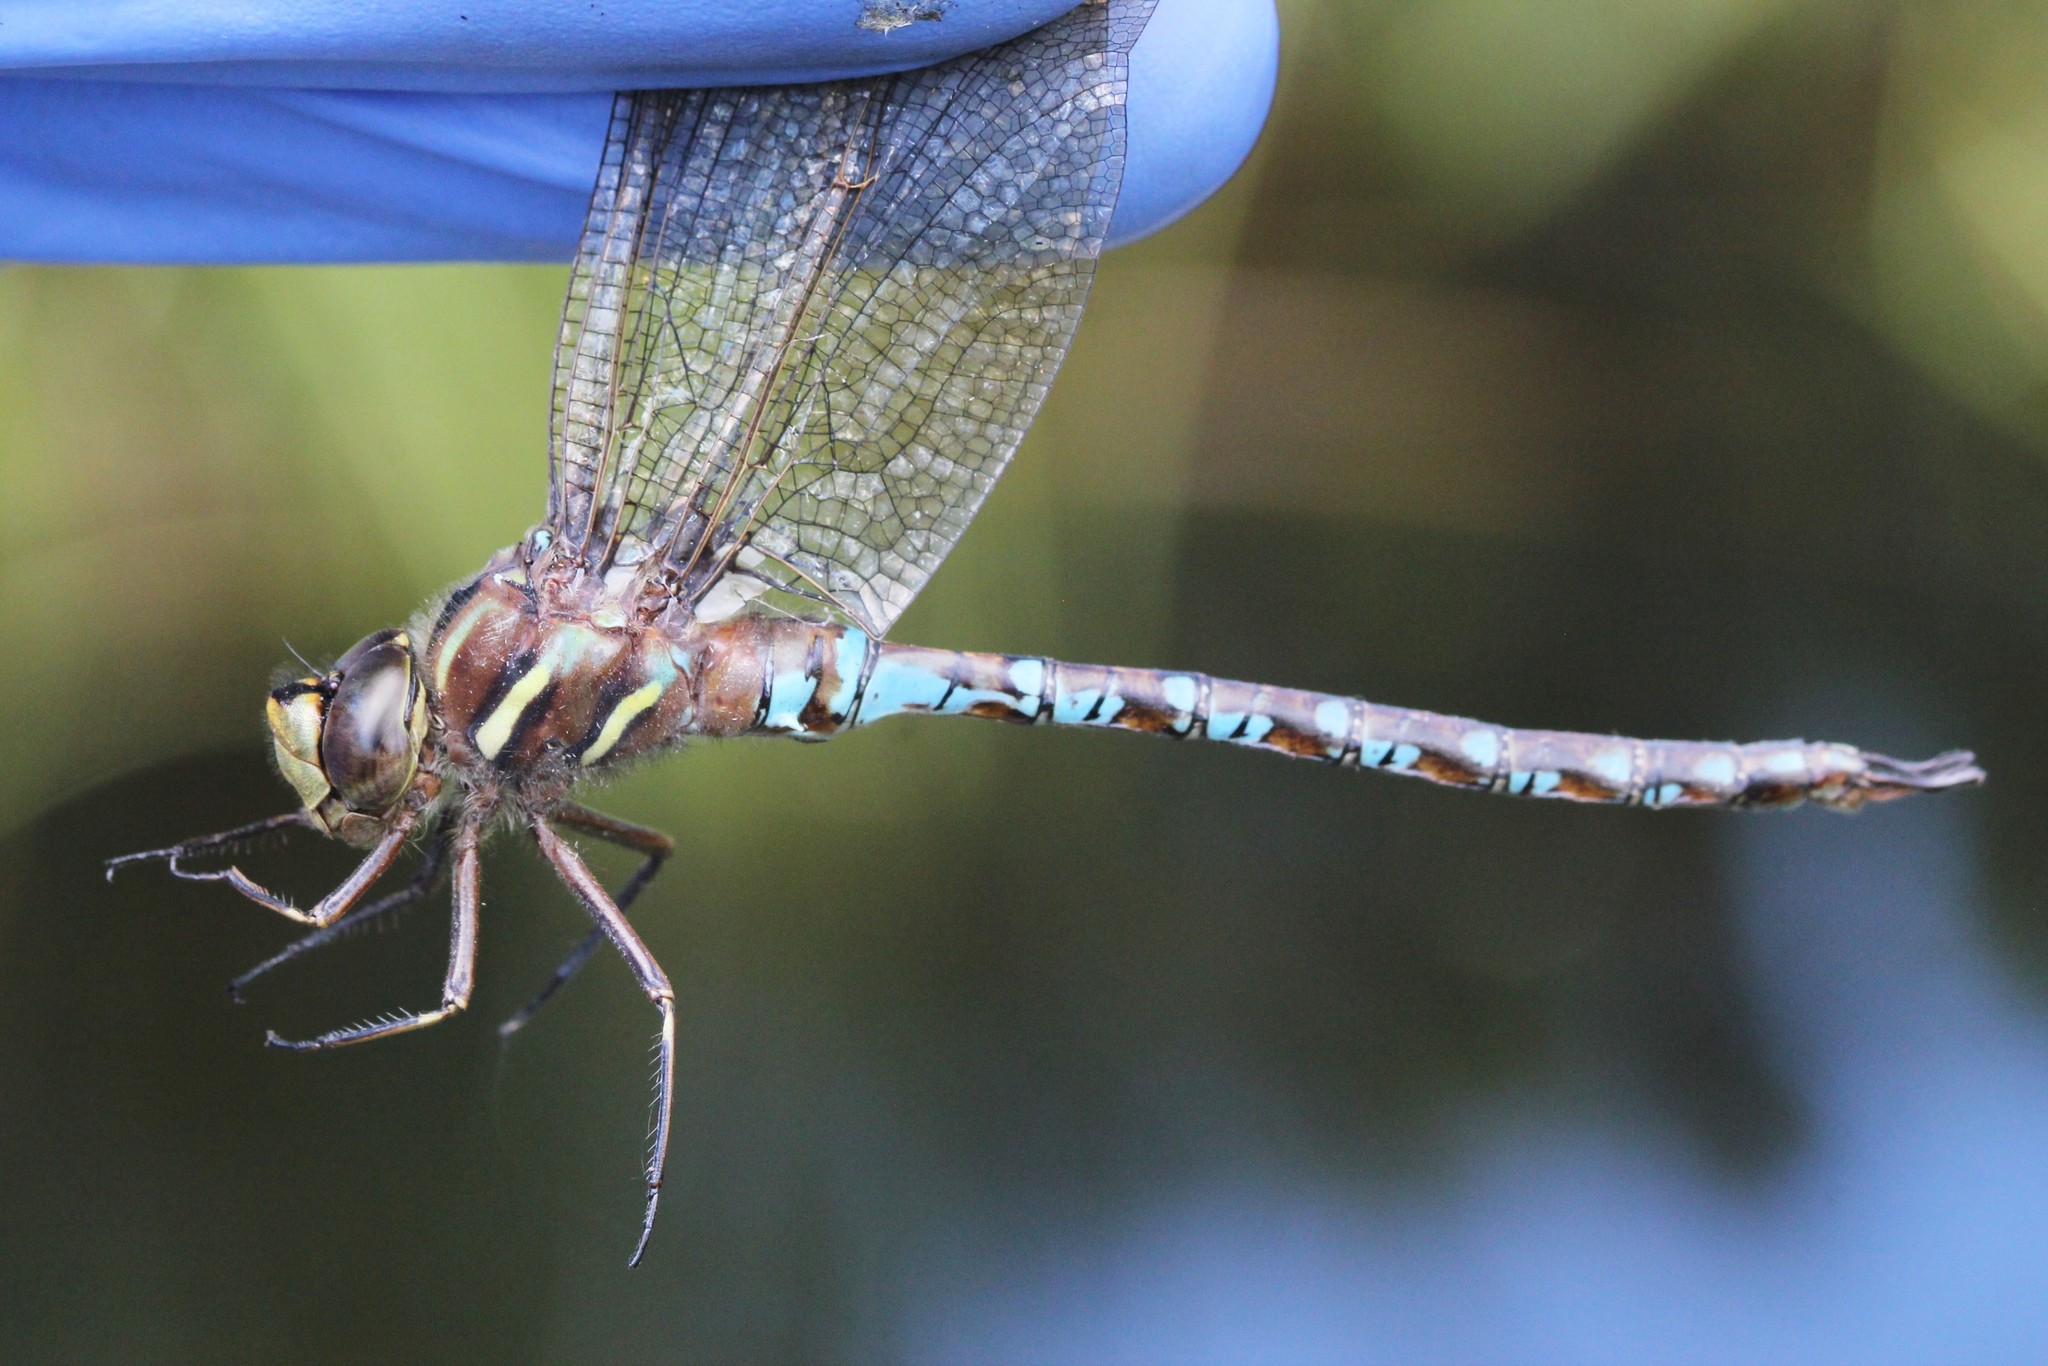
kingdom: Animalia
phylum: Arthropoda
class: Insecta
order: Odonata
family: Aeshnidae
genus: Basiaeschna
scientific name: Basiaeschna janata
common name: Springtime darner
